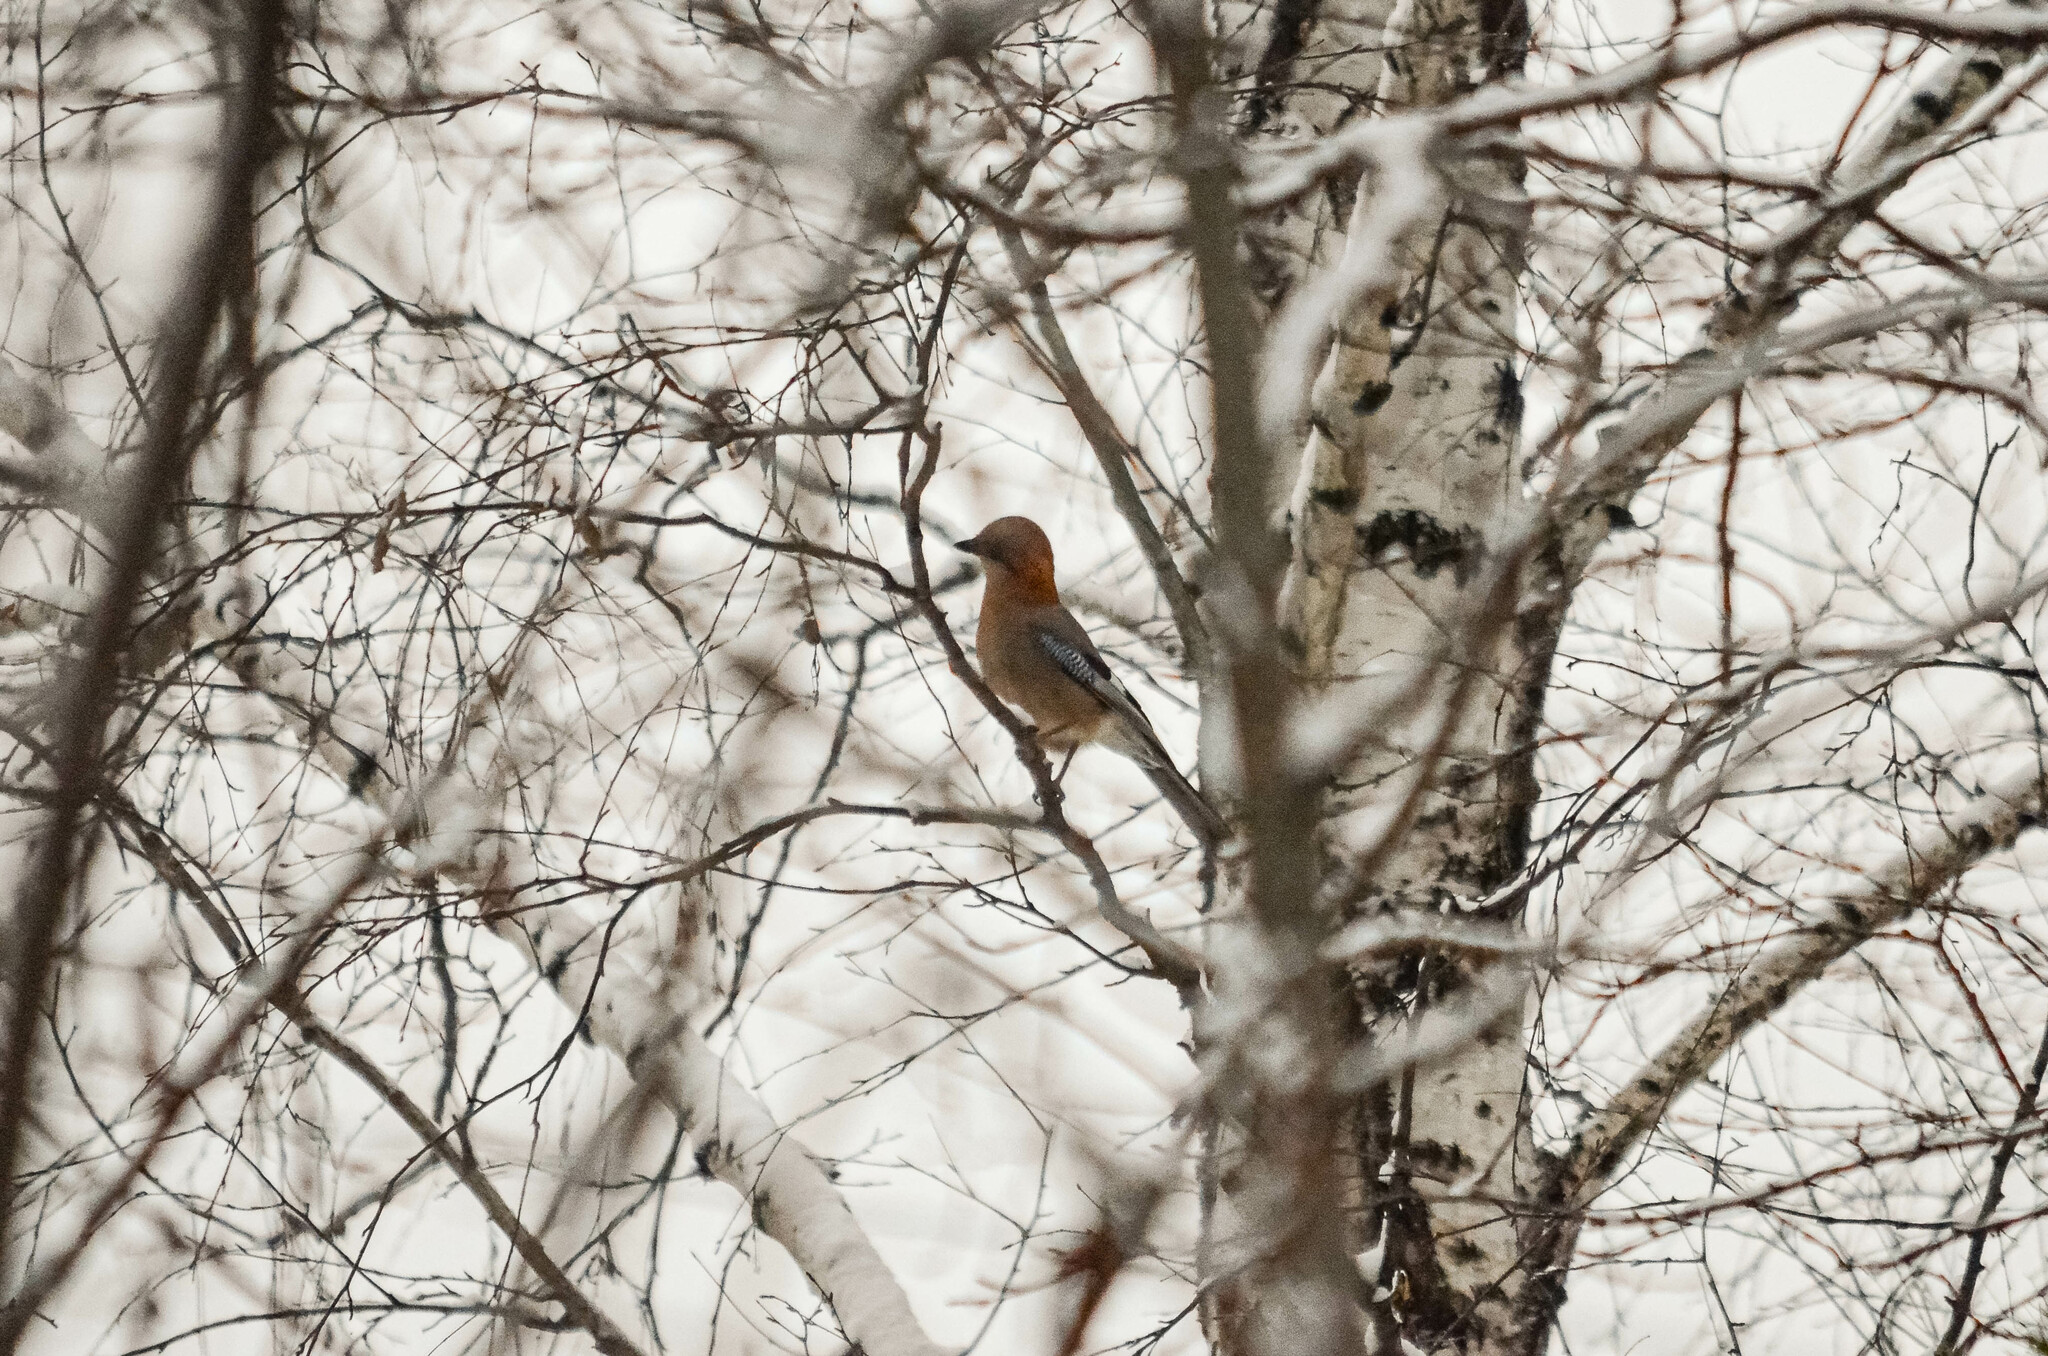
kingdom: Animalia
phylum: Chordata
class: Aves
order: Passeriformes
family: Corvidae
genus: Garrulus
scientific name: Garrulus glandarius
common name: Eurasian jay
